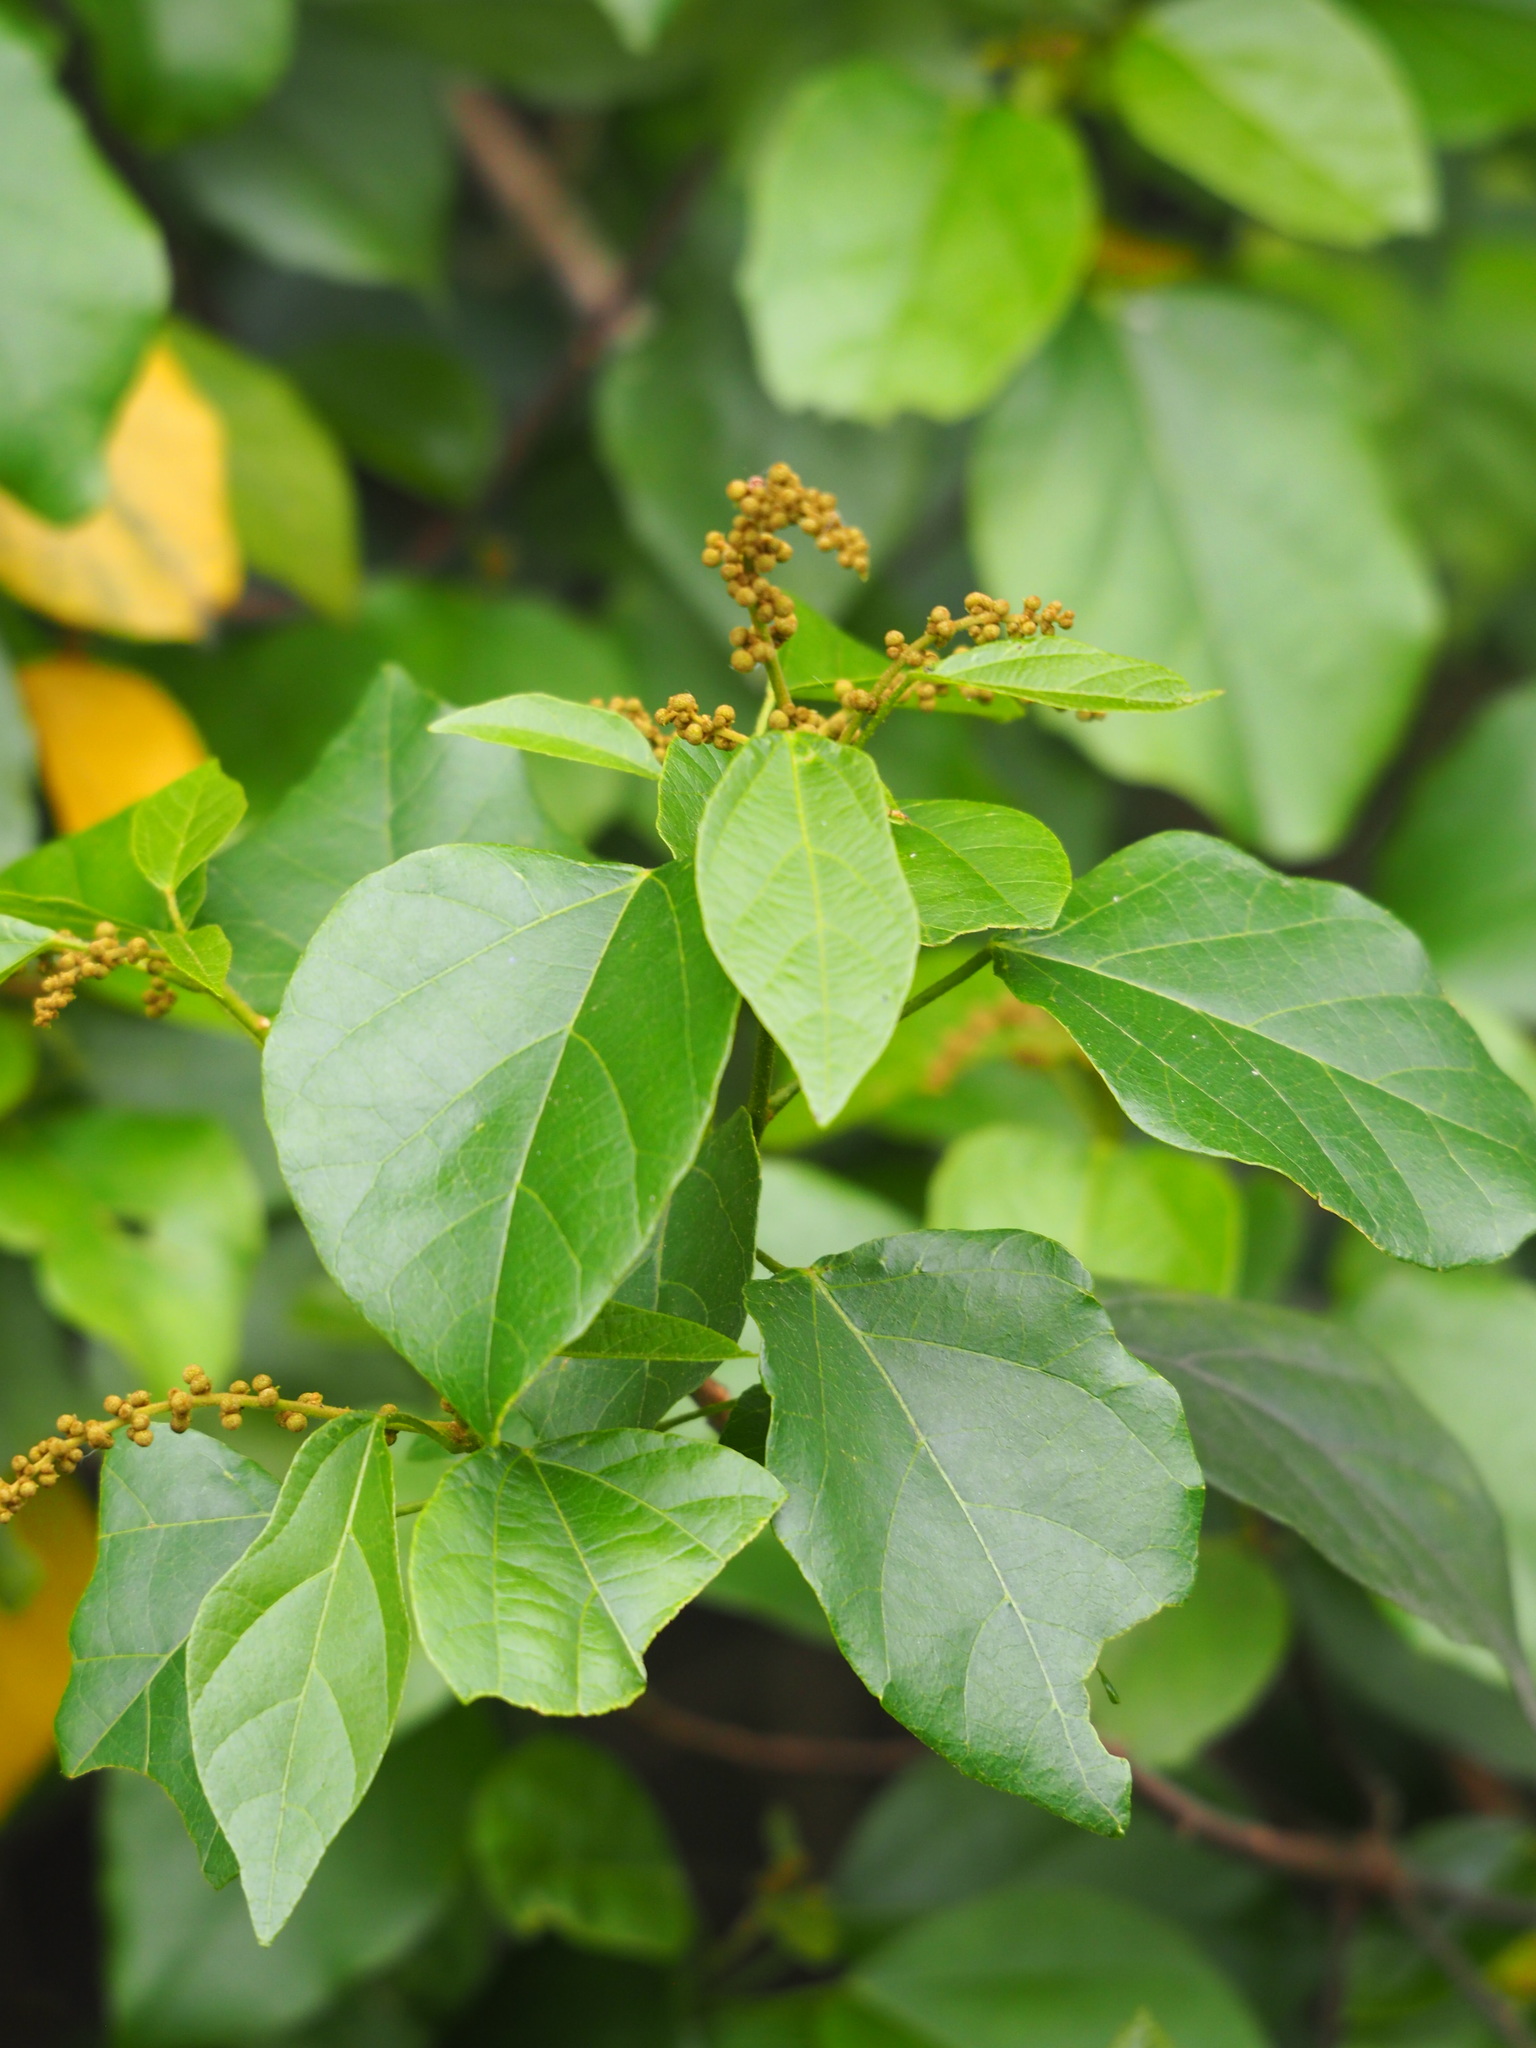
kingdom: Plantae
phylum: Tracheophyta
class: Magnoliopsida
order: Malpighiales
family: Euphorbiaceae
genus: Mallotus
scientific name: Mallotus repandus
